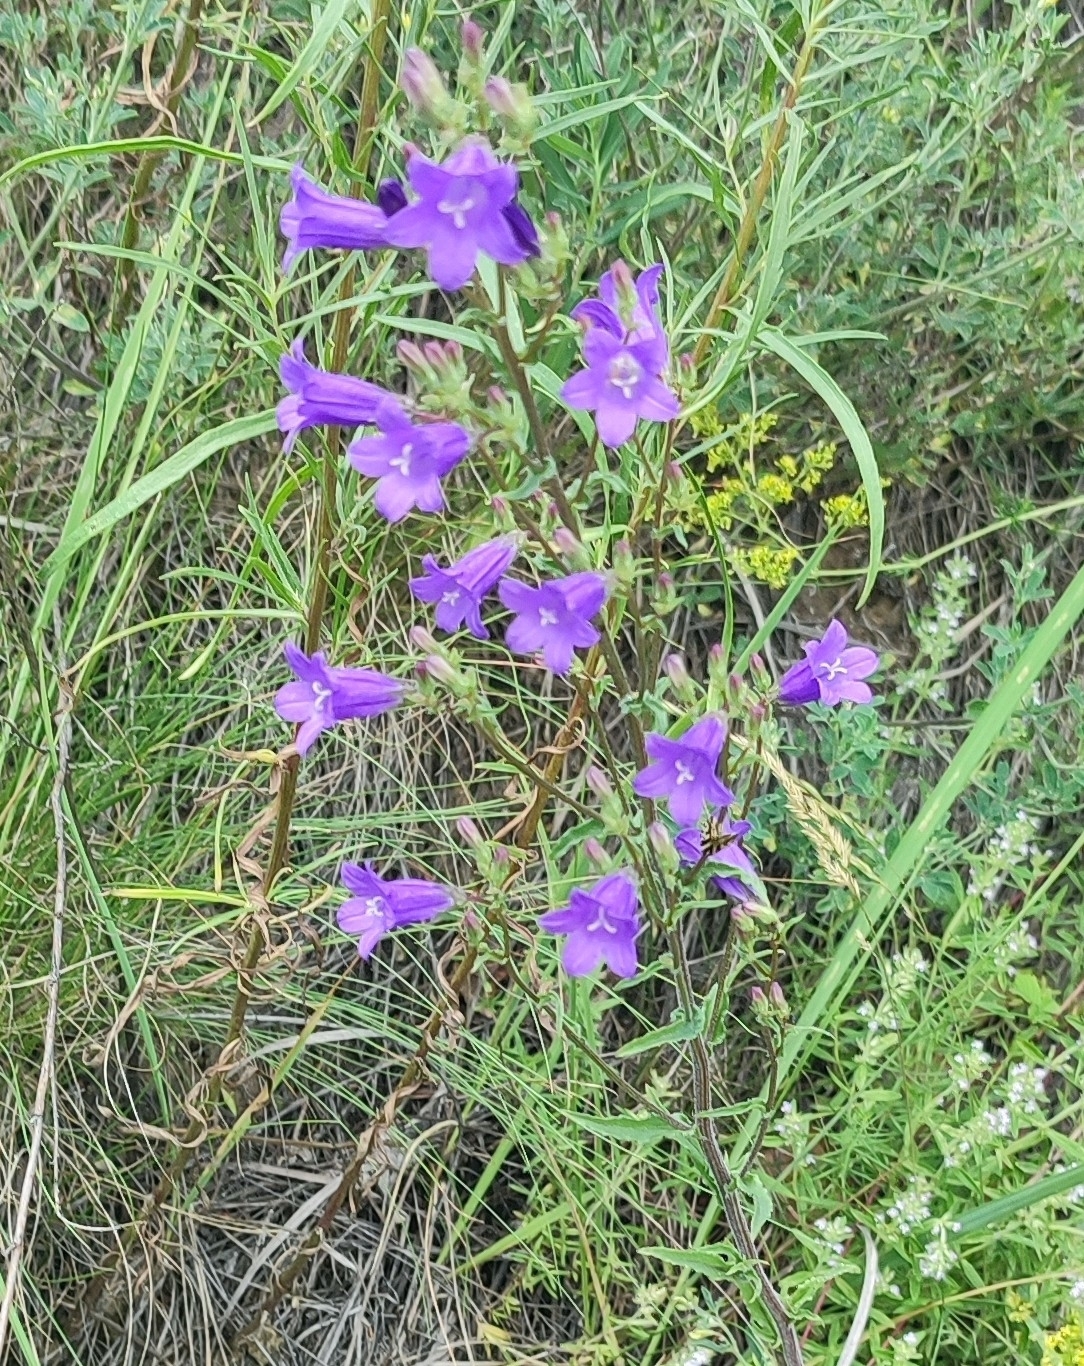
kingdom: Plantae
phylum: Tracheophyta
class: Magnoliopsida
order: Asterales
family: Campanulaceae
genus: Campanula
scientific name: Campanula sibirica
